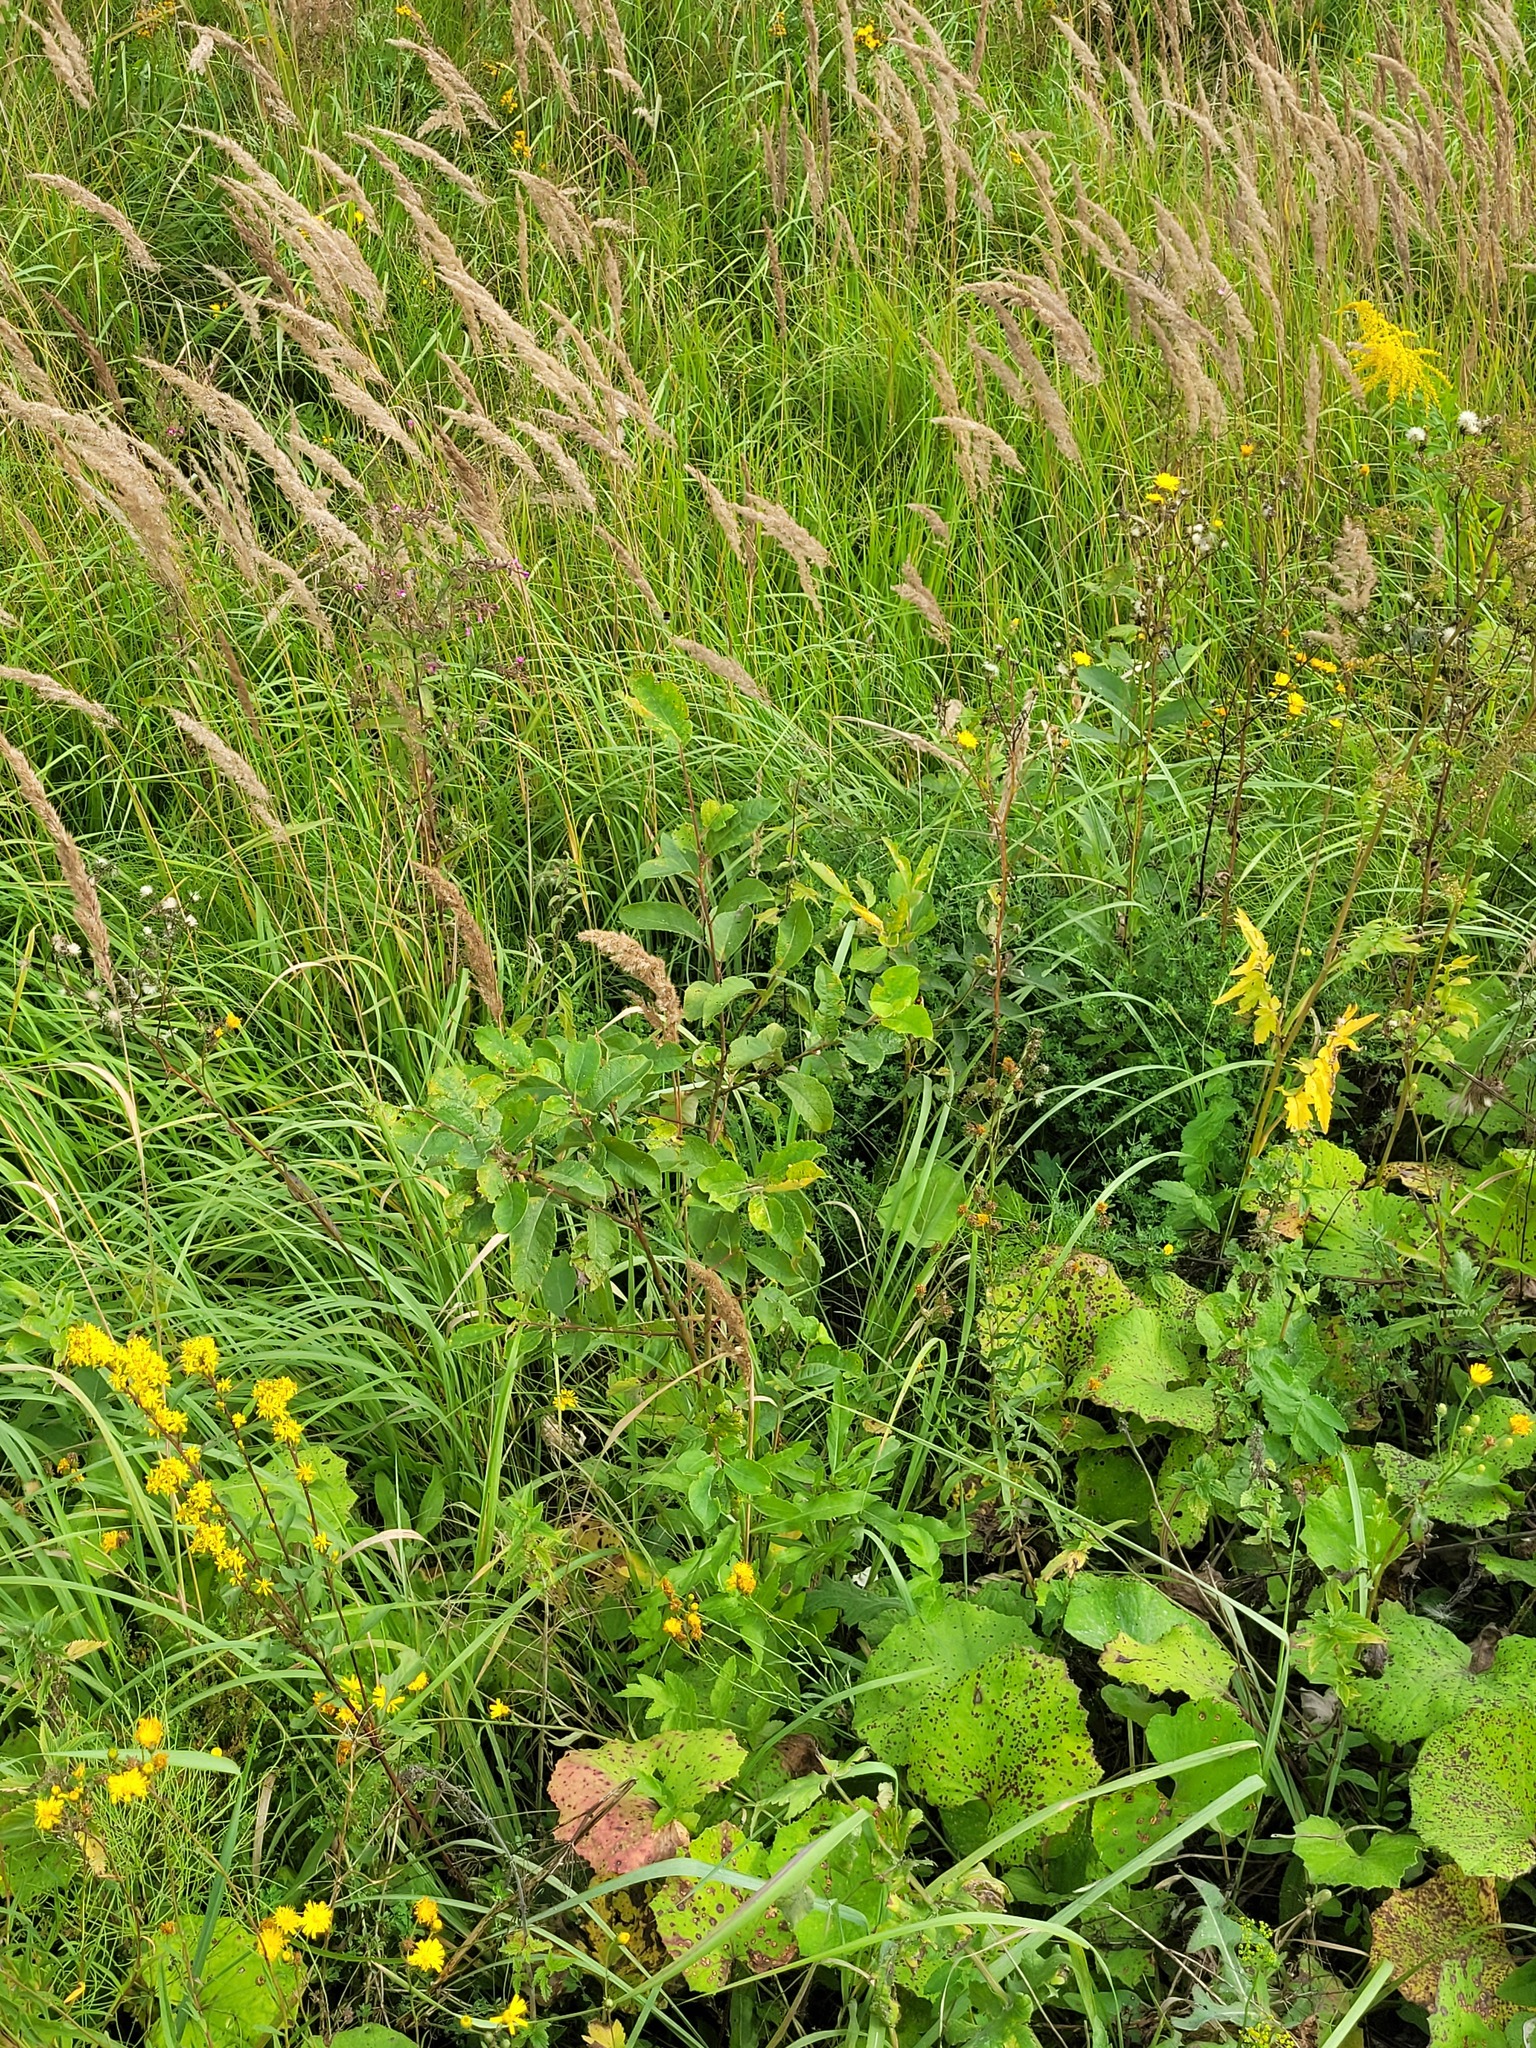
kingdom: Plantae
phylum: Tracheophyta
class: Magnoliopsida
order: Malpighiales
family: Salicaceae
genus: Salix
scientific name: Salix caprea
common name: Goat willow
